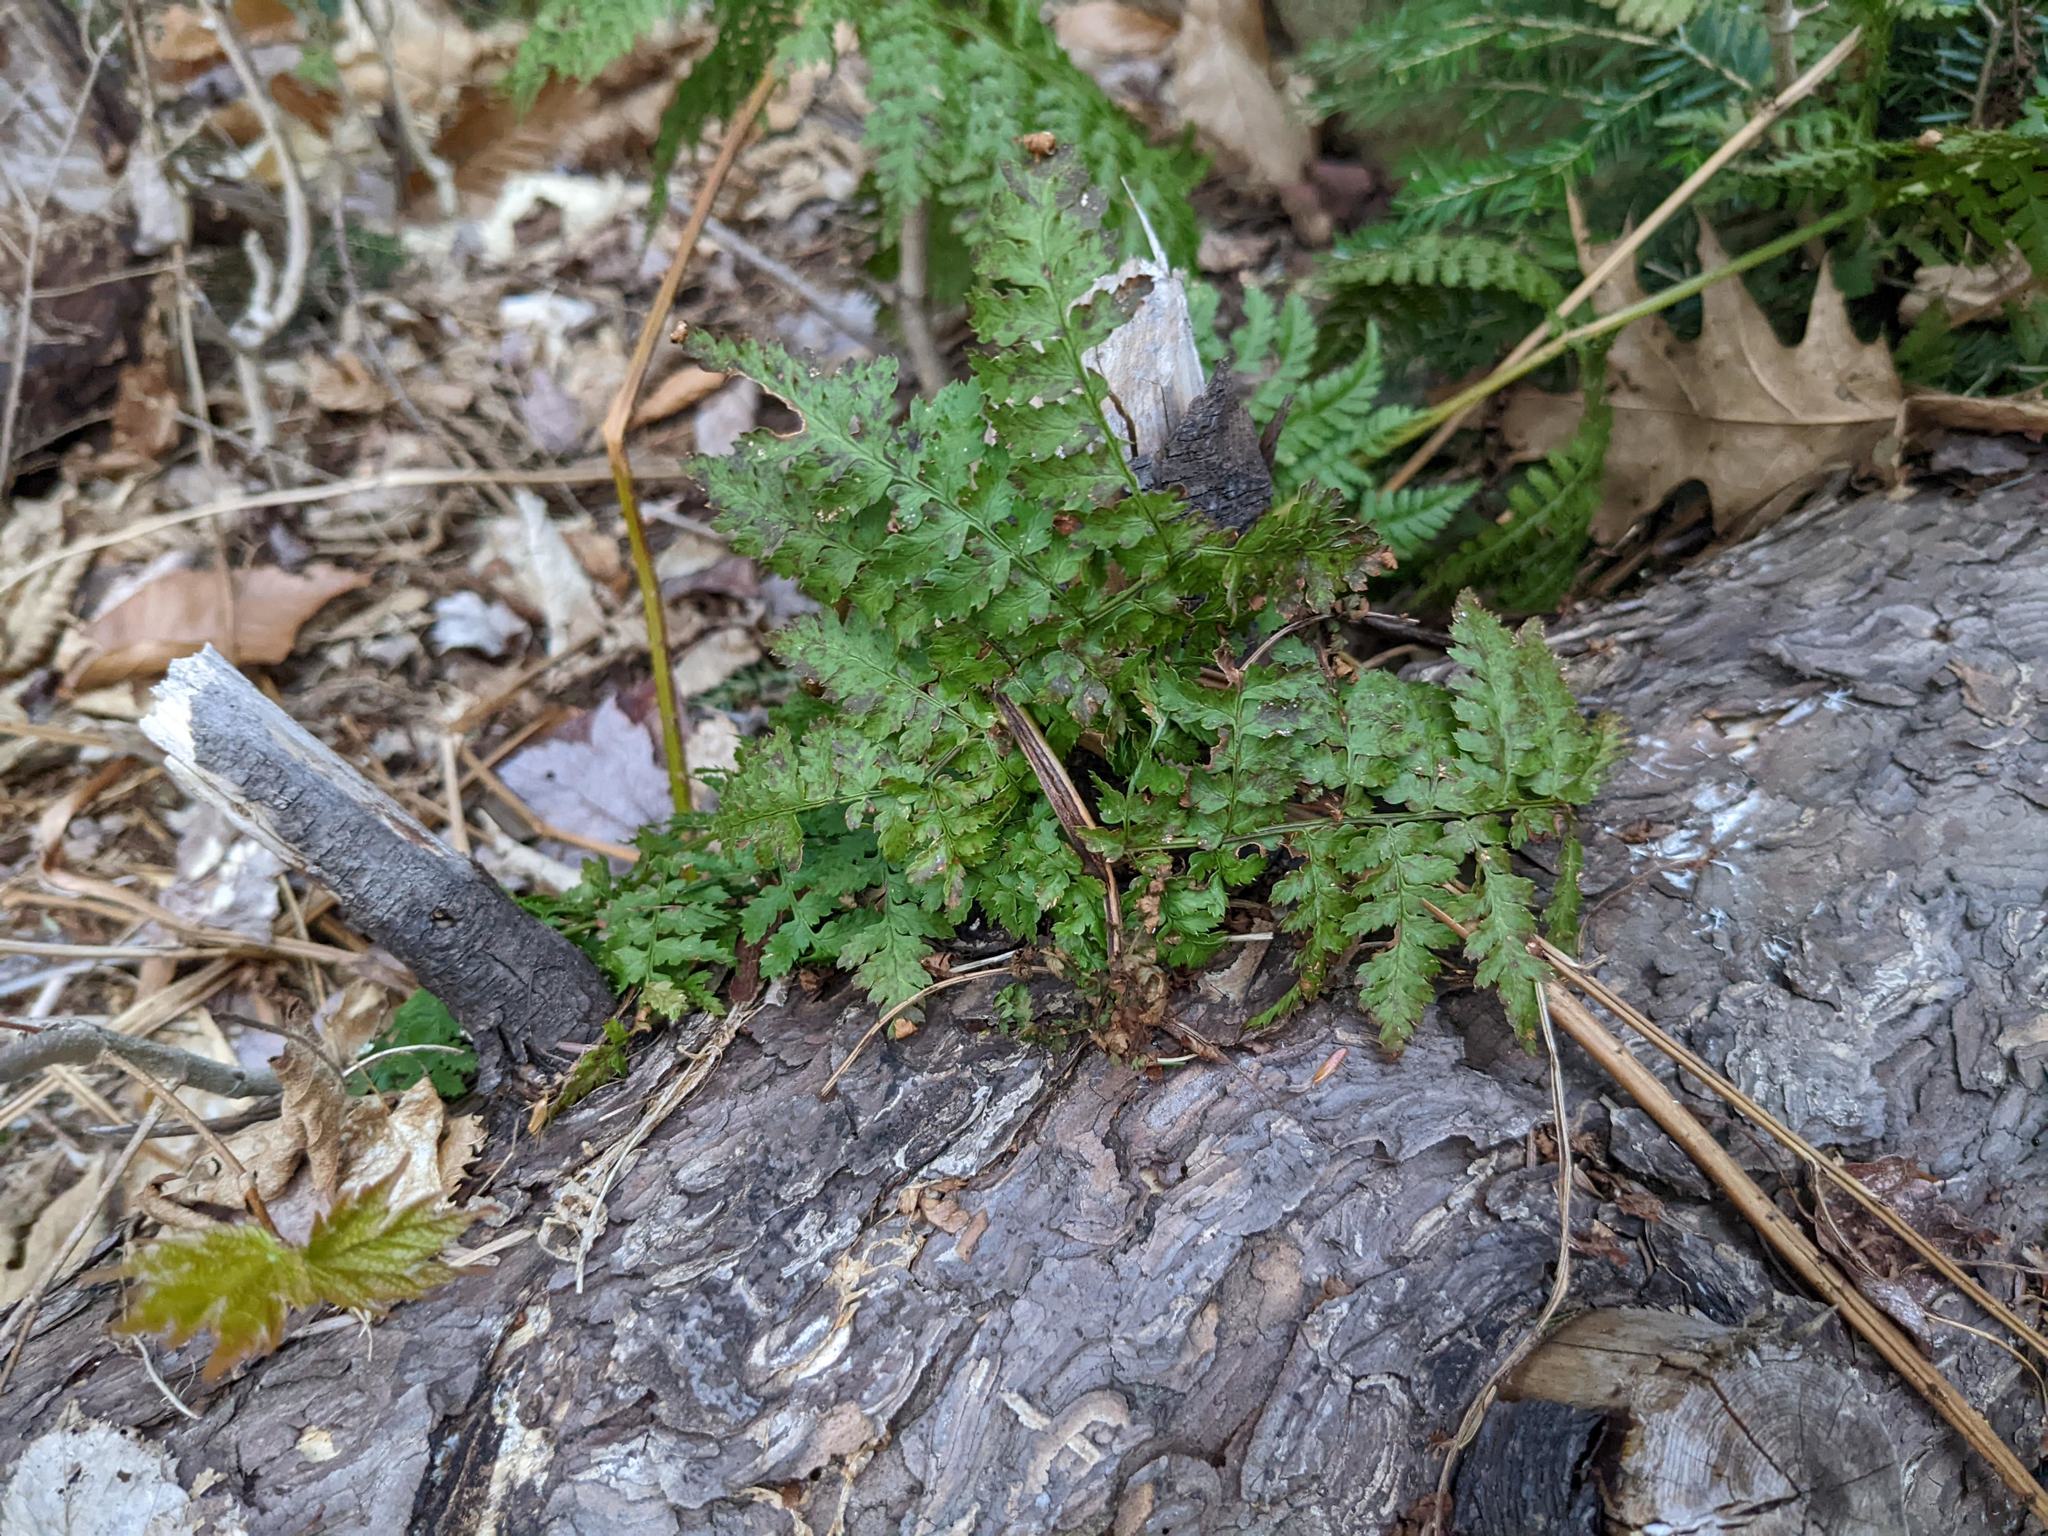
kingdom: Plantae
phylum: Tracheophyta
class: Polypodiopsida
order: Polypodiales
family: Dryopteridaceae
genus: Dryopteris
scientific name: Dryopteris intermedia
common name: Evergreen wood fern
